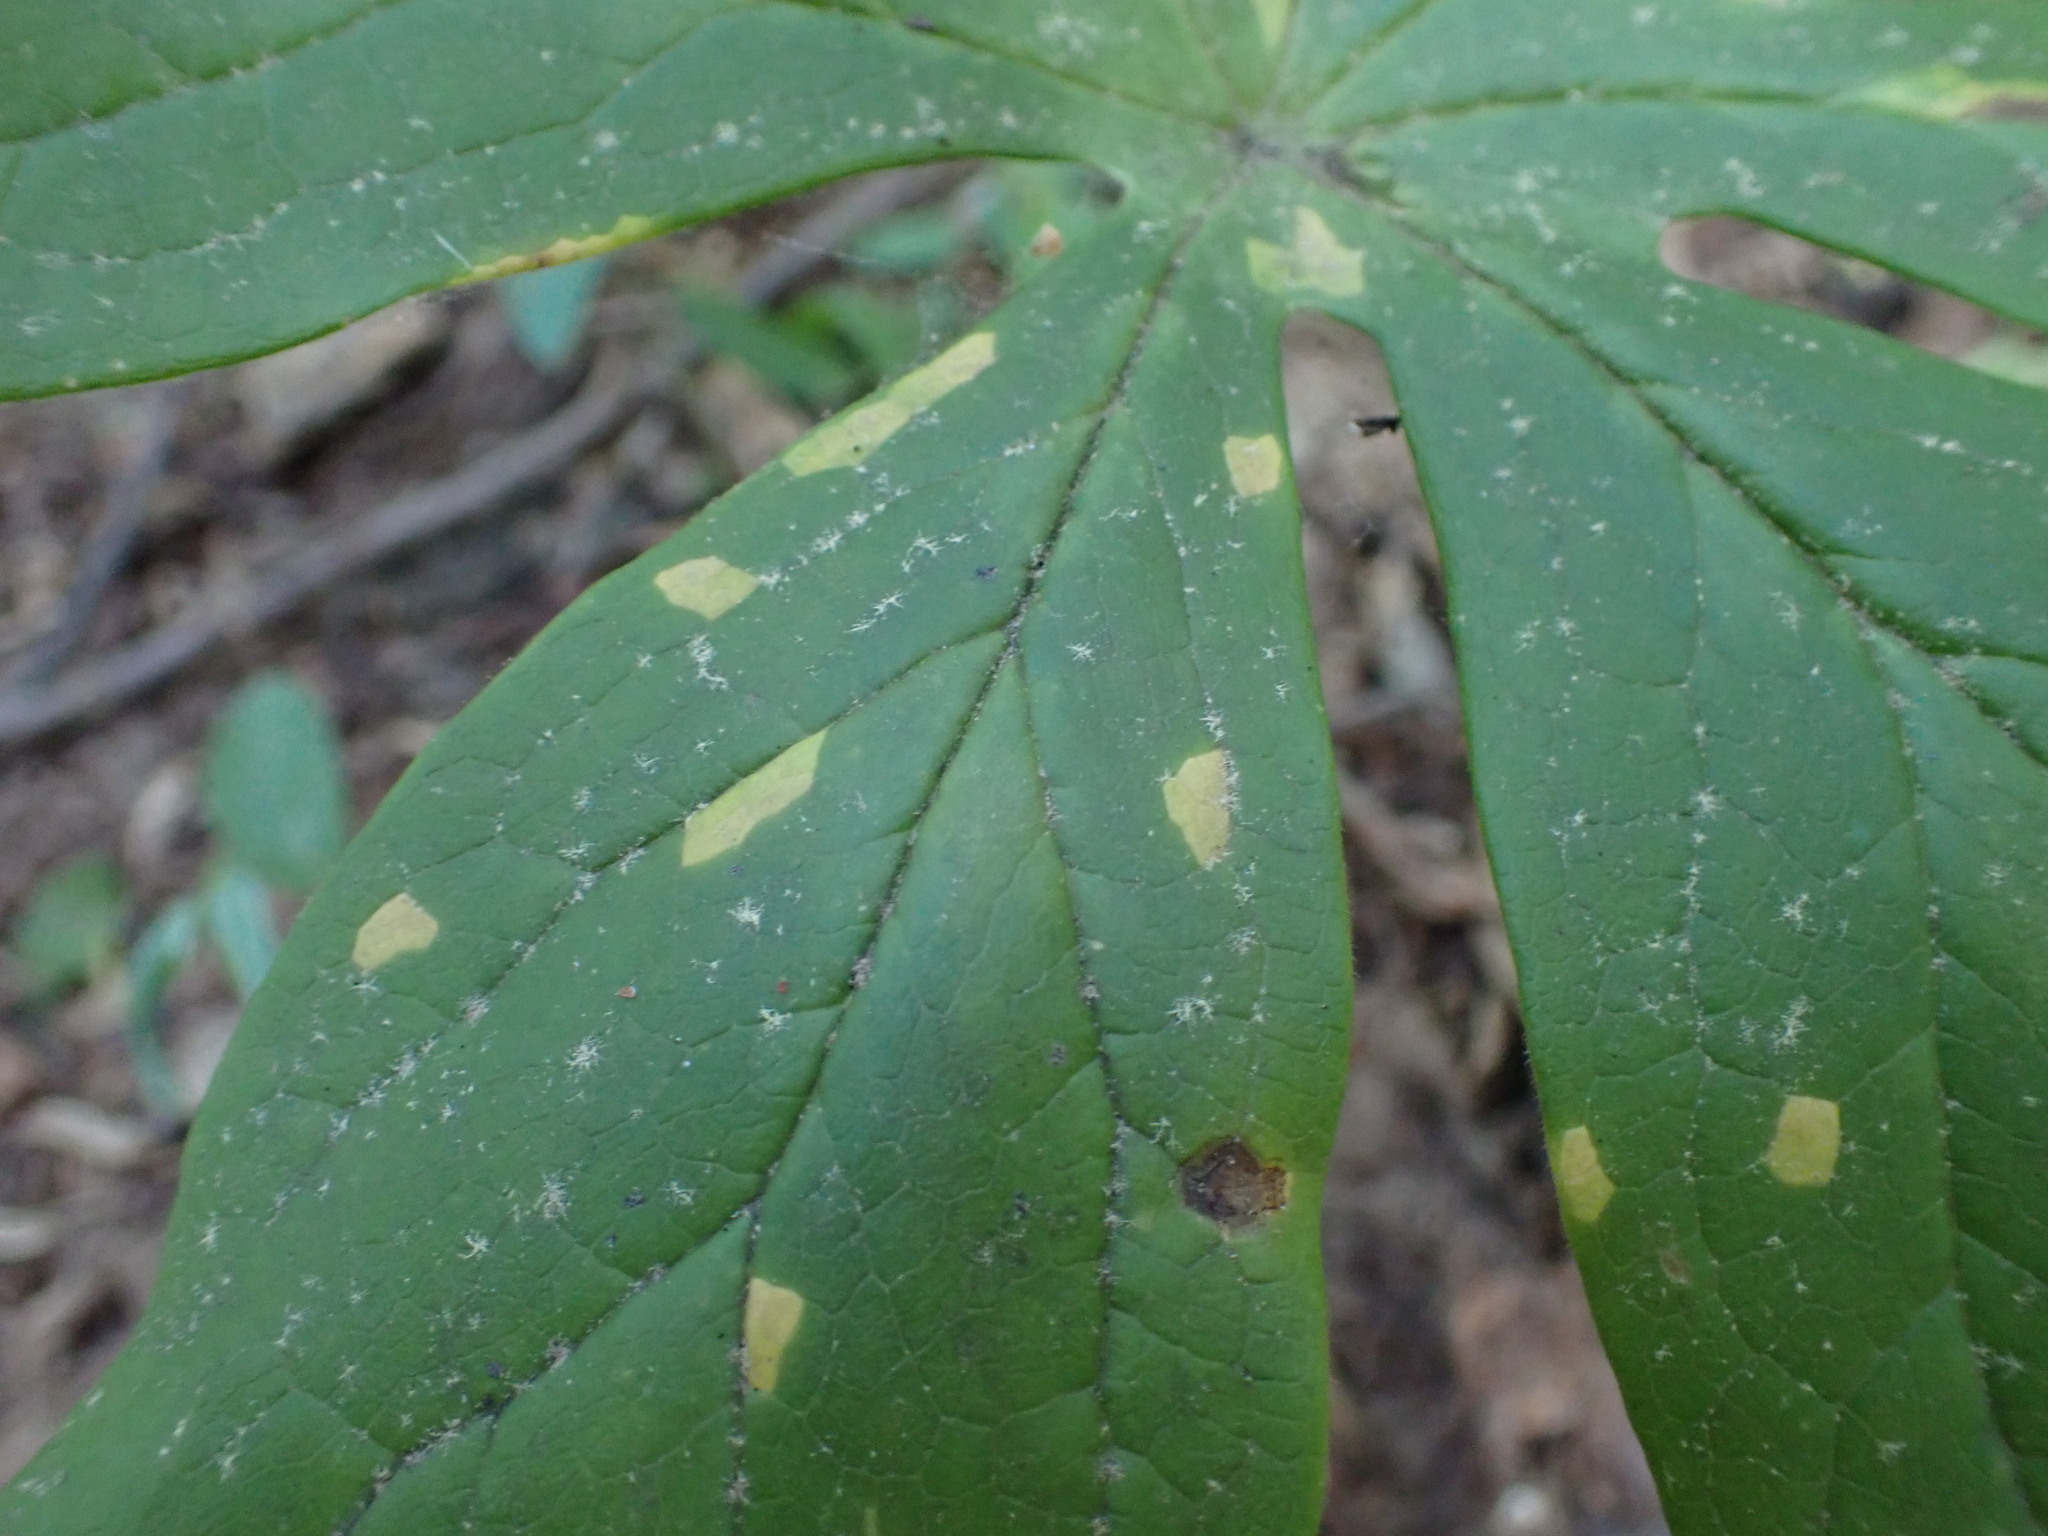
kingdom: Fungi
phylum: Basidiomycota
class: Pucciniomycetes
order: Pucciniales
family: Pucciniaceae
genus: Puccinia
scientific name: Puccinia podophylli
